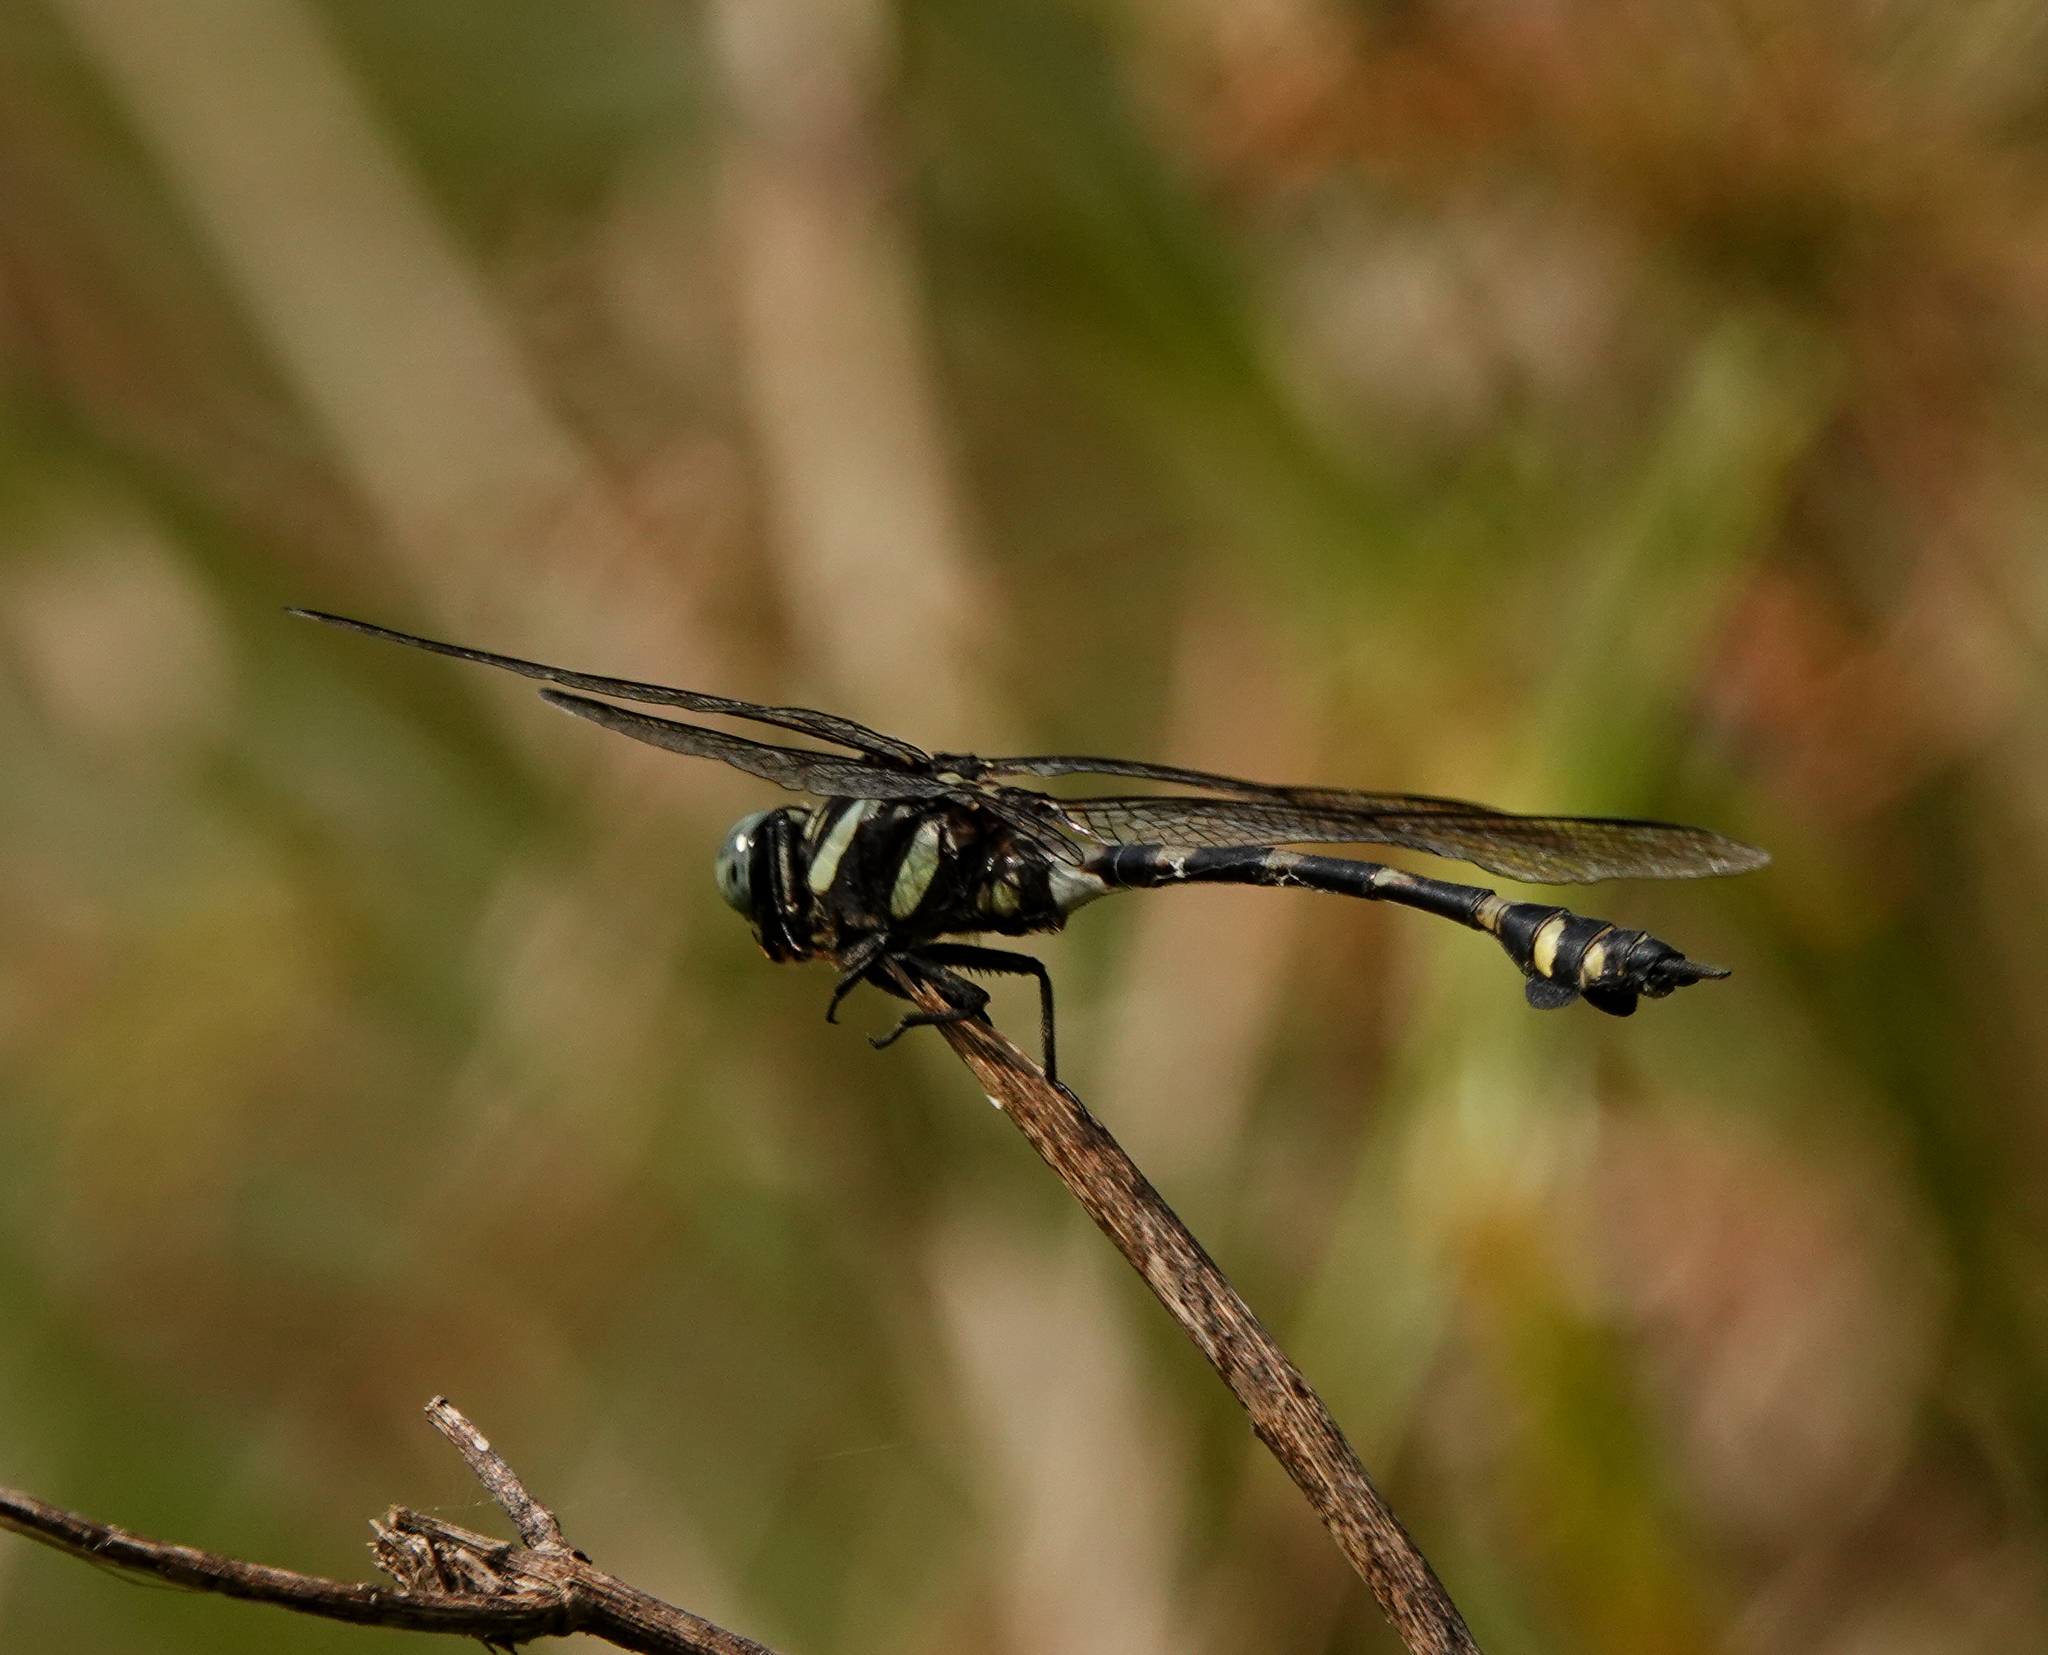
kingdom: Animalia
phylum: Arthropoda
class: Insecta
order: Odonata
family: Gomphidae
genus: Ictinogomphus
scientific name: Ictinogomphus decoratus
